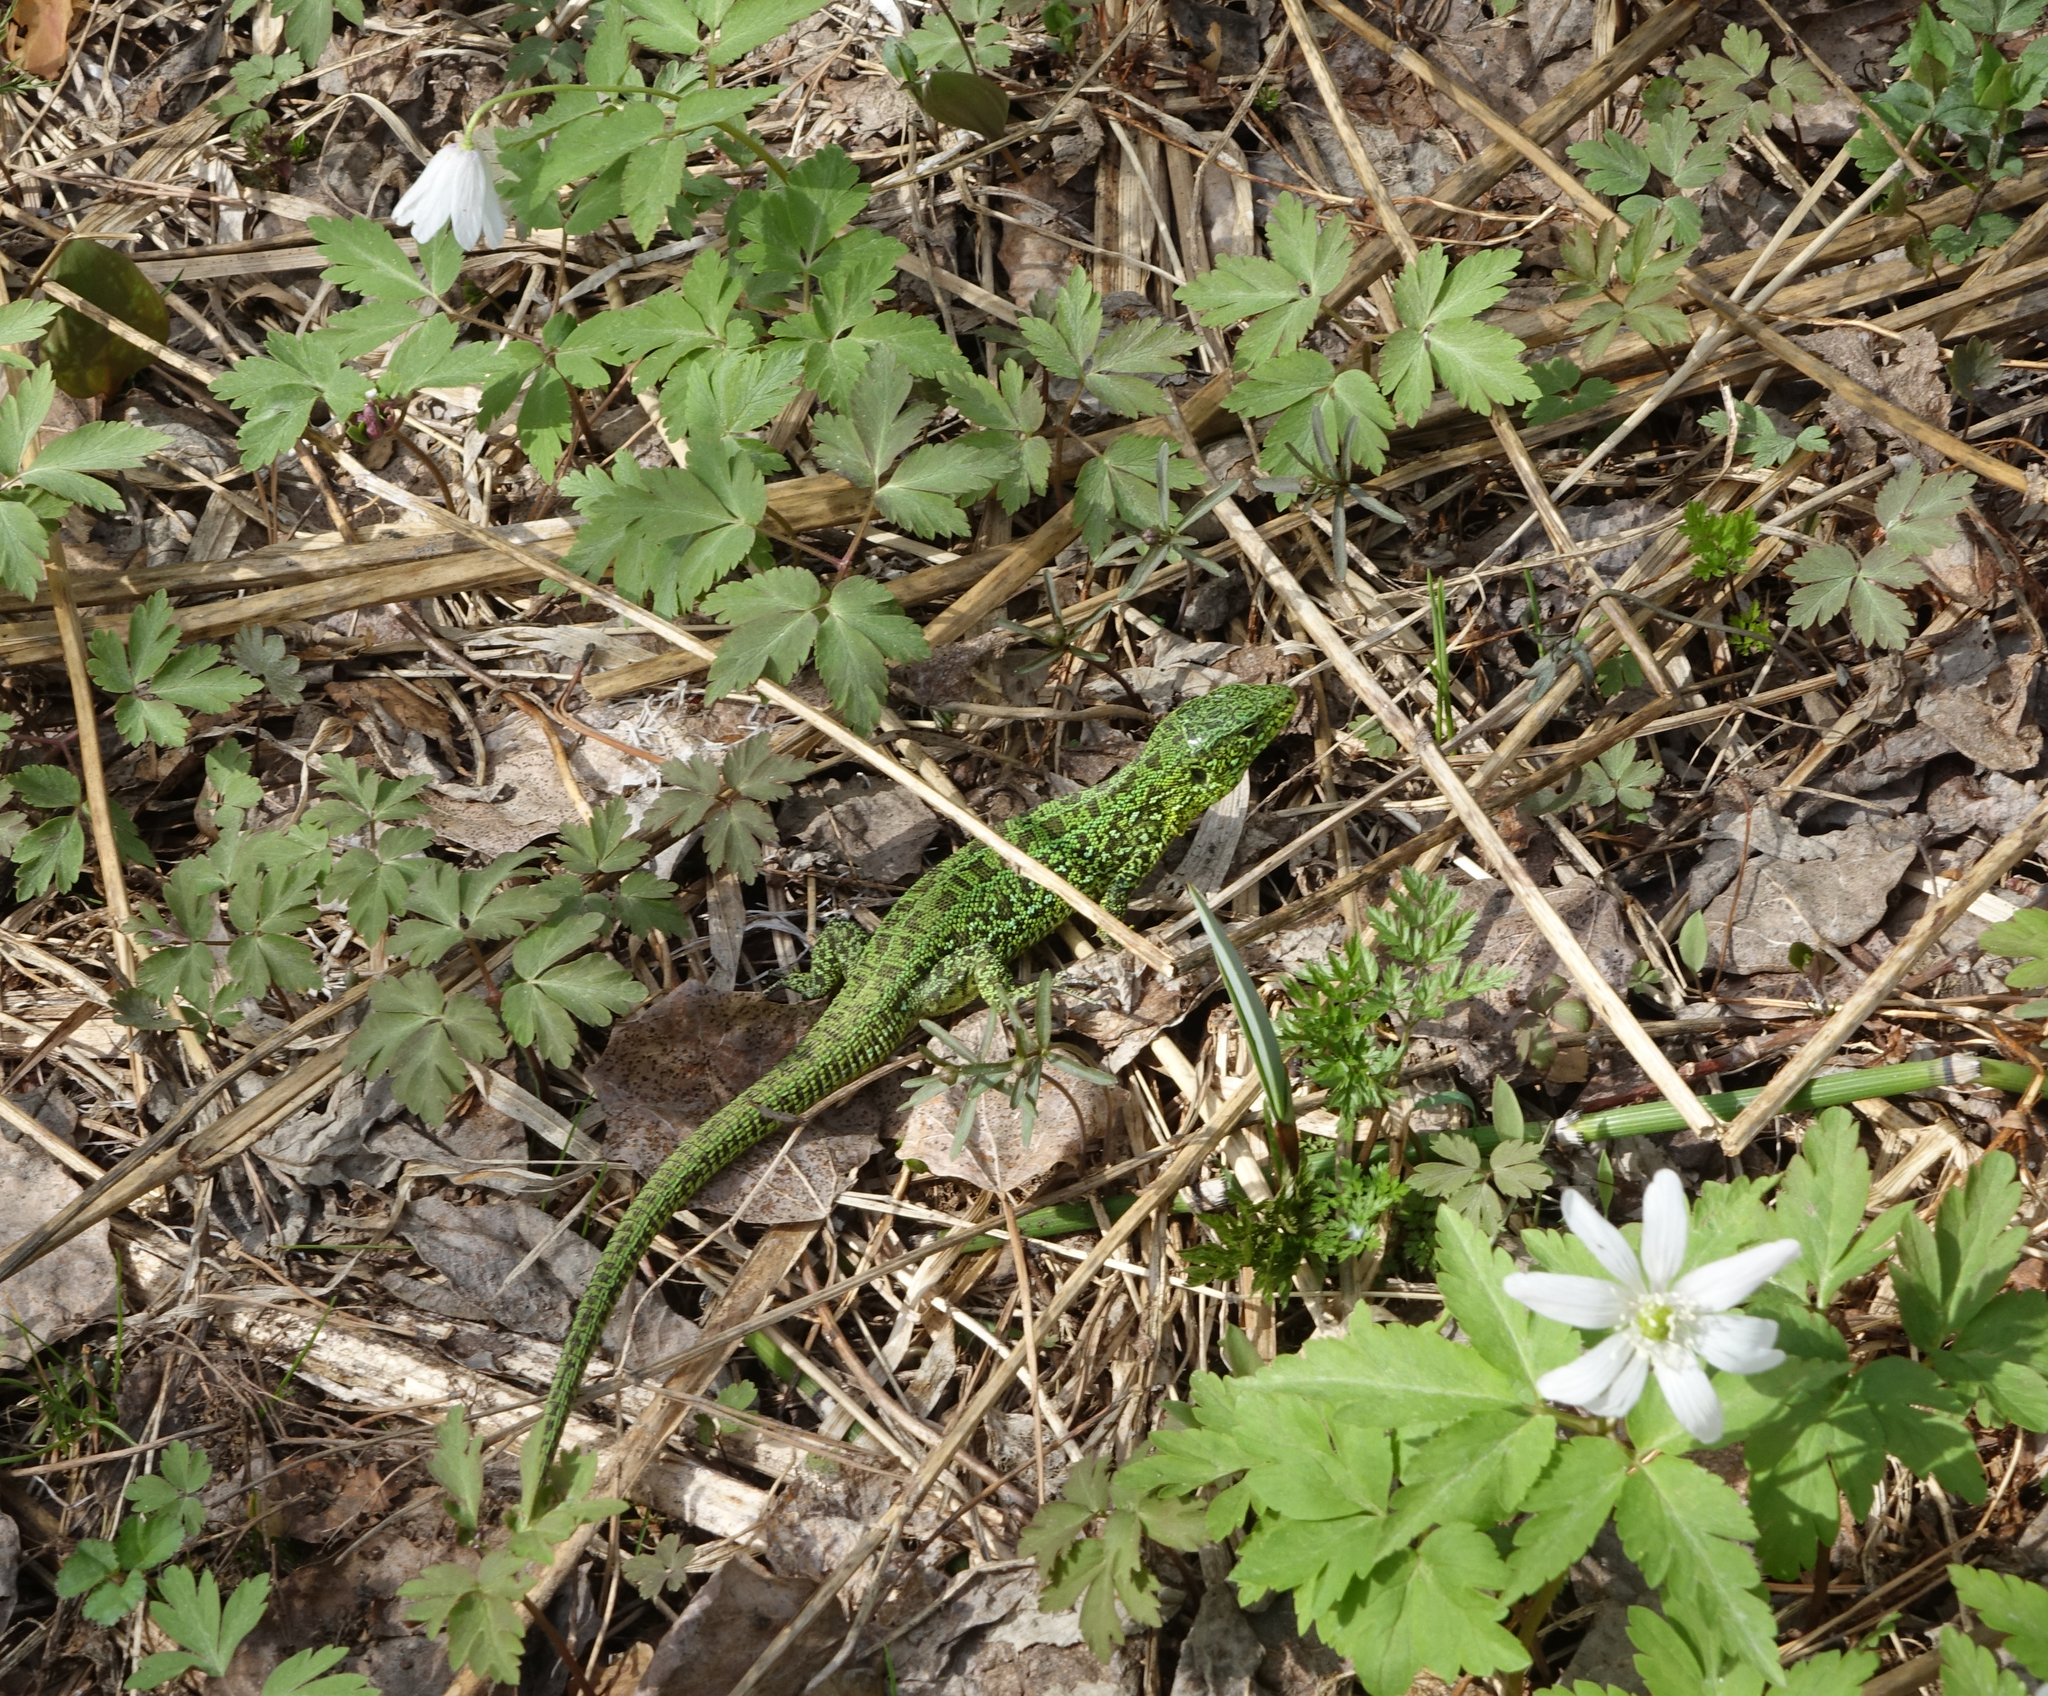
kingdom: Animalia
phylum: Chordata
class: Squamata
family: Lacertidae
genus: Lacerta
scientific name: Lacerta agilis
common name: Sand lizard
